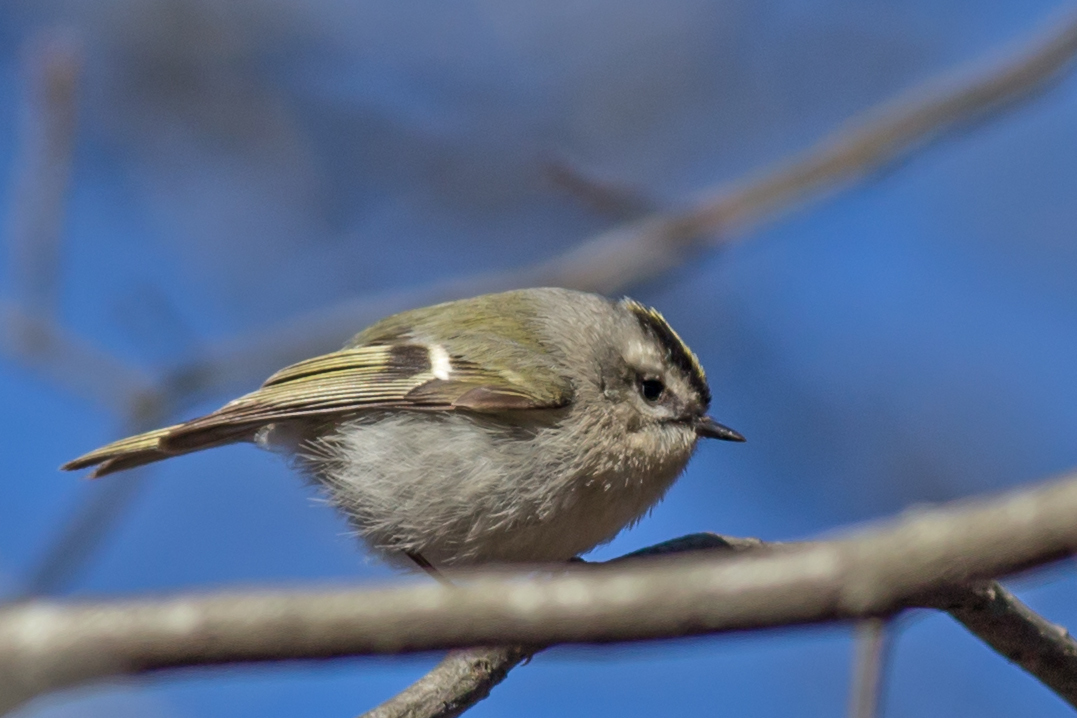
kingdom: Animalia
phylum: Chordata
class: Aves
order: Passeriformes
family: Regulidae
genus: Regulus
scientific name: Regulus satrapa
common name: Golden-crowned kinglet
